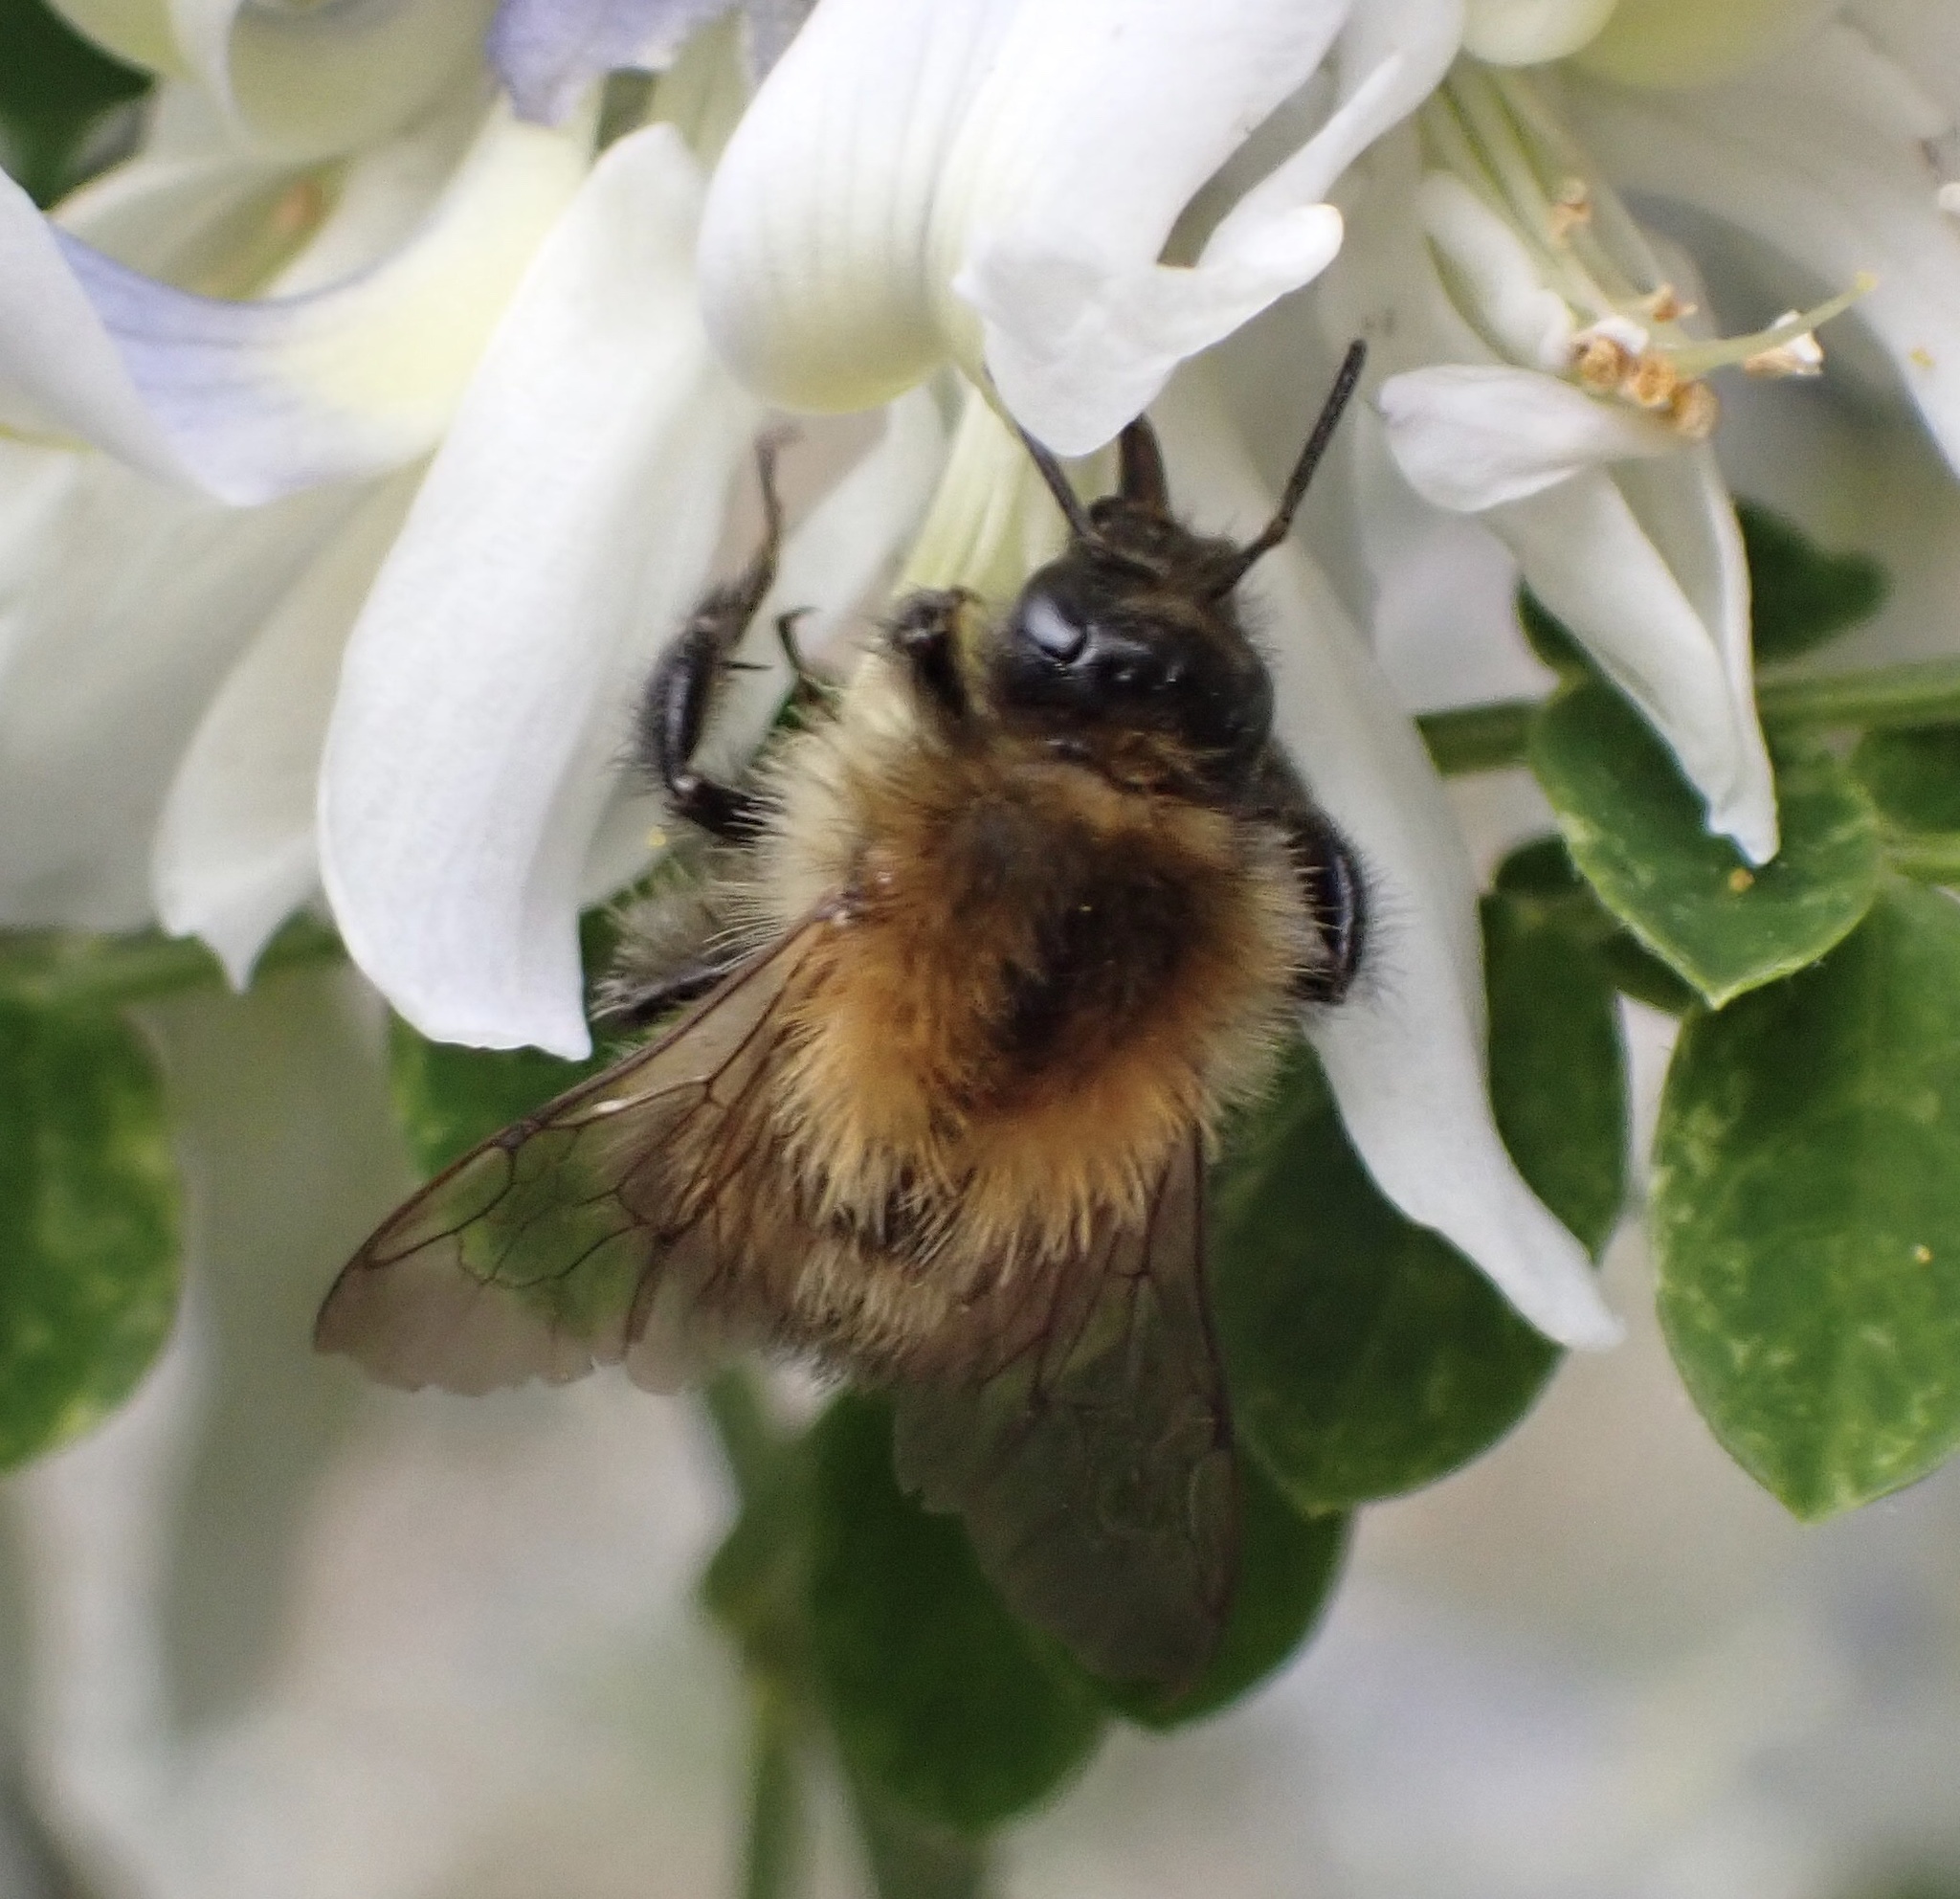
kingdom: Animalia
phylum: Arthropoda
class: Insecta
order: Hymenoptera
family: Apidae
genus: Bombus
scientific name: Bombus pascuorum
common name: Common carder bee
